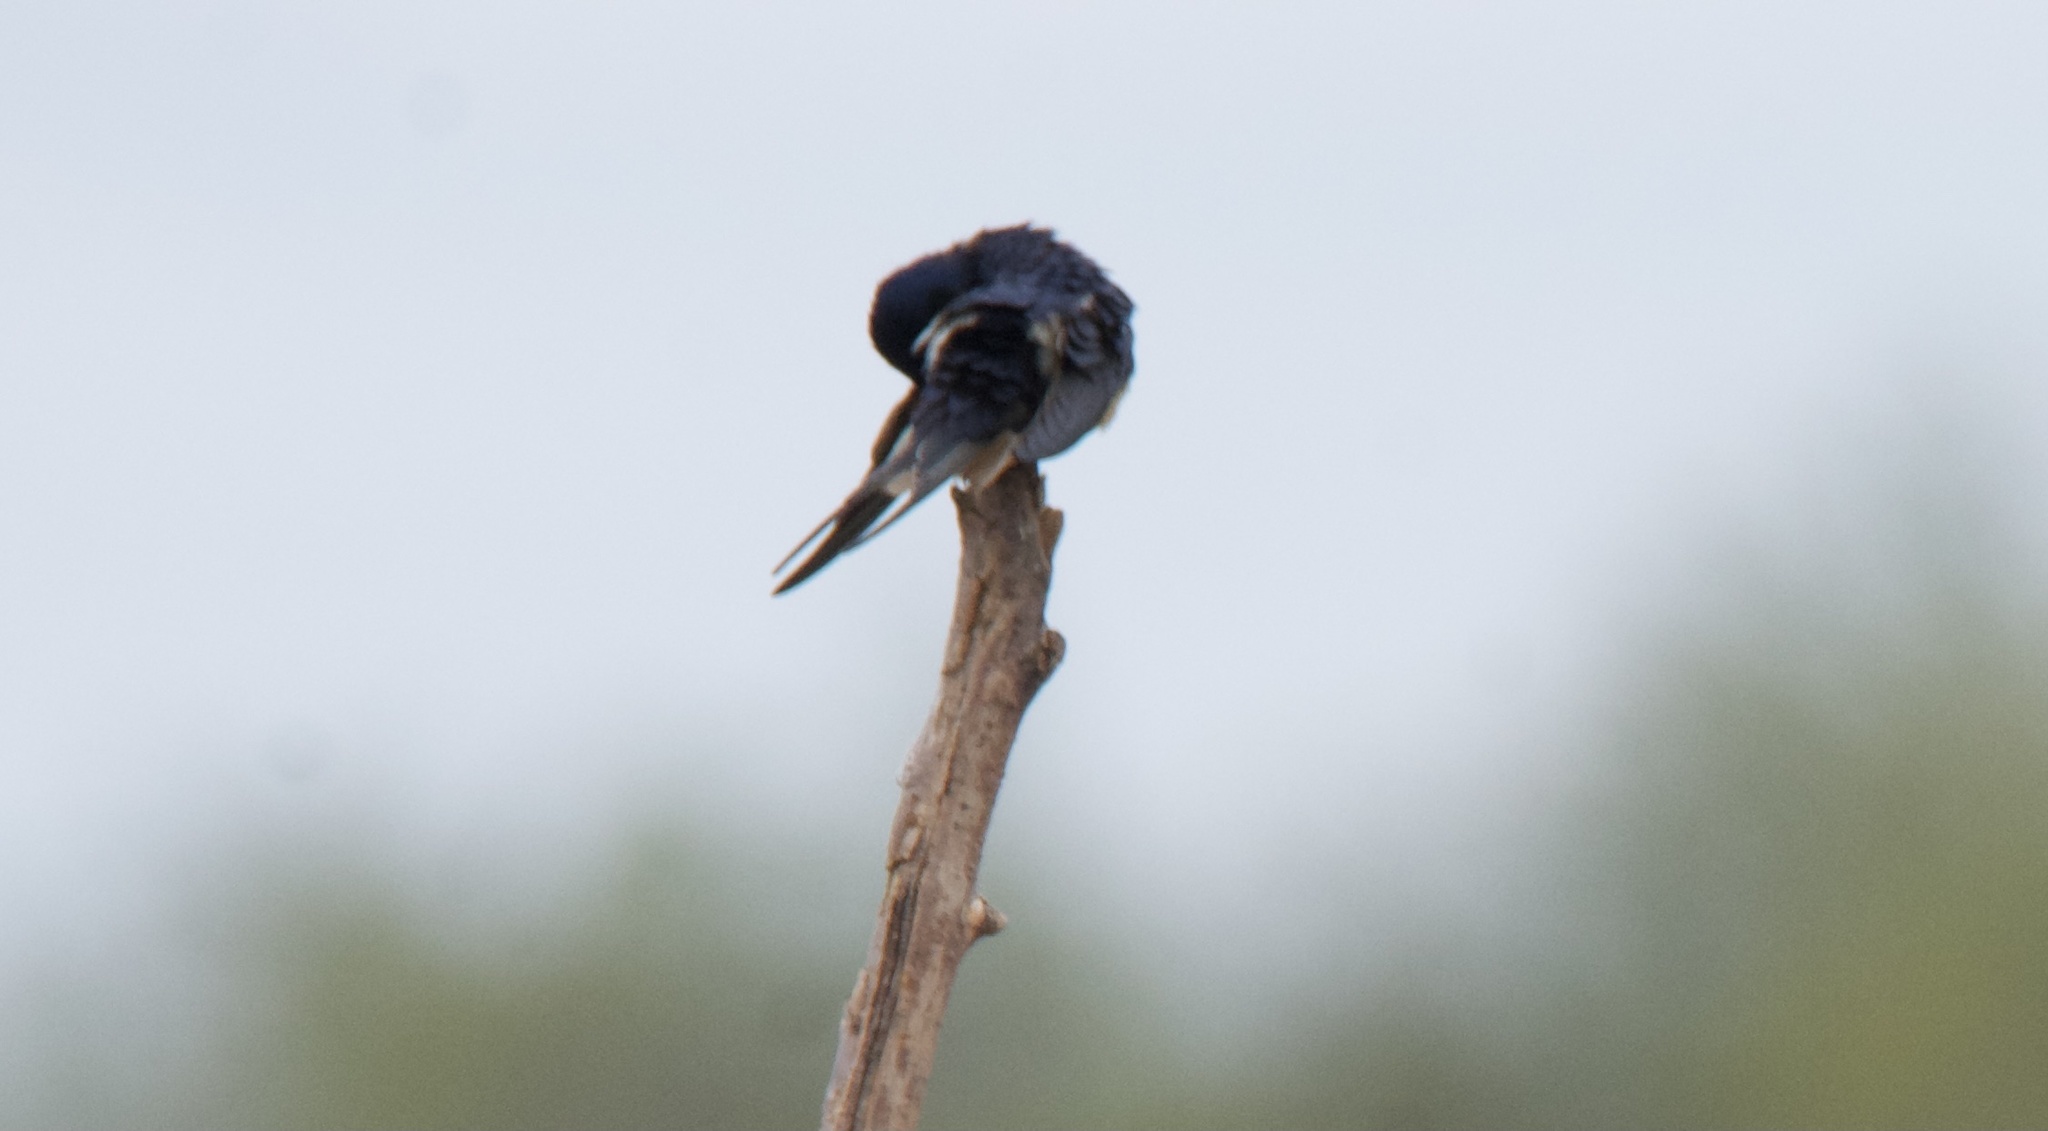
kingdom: Animalia
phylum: Chordata
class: Aves
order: Passeriformes
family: Hirundinidae
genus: Hirundo
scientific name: Hirundo rustica
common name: Barn swallow
